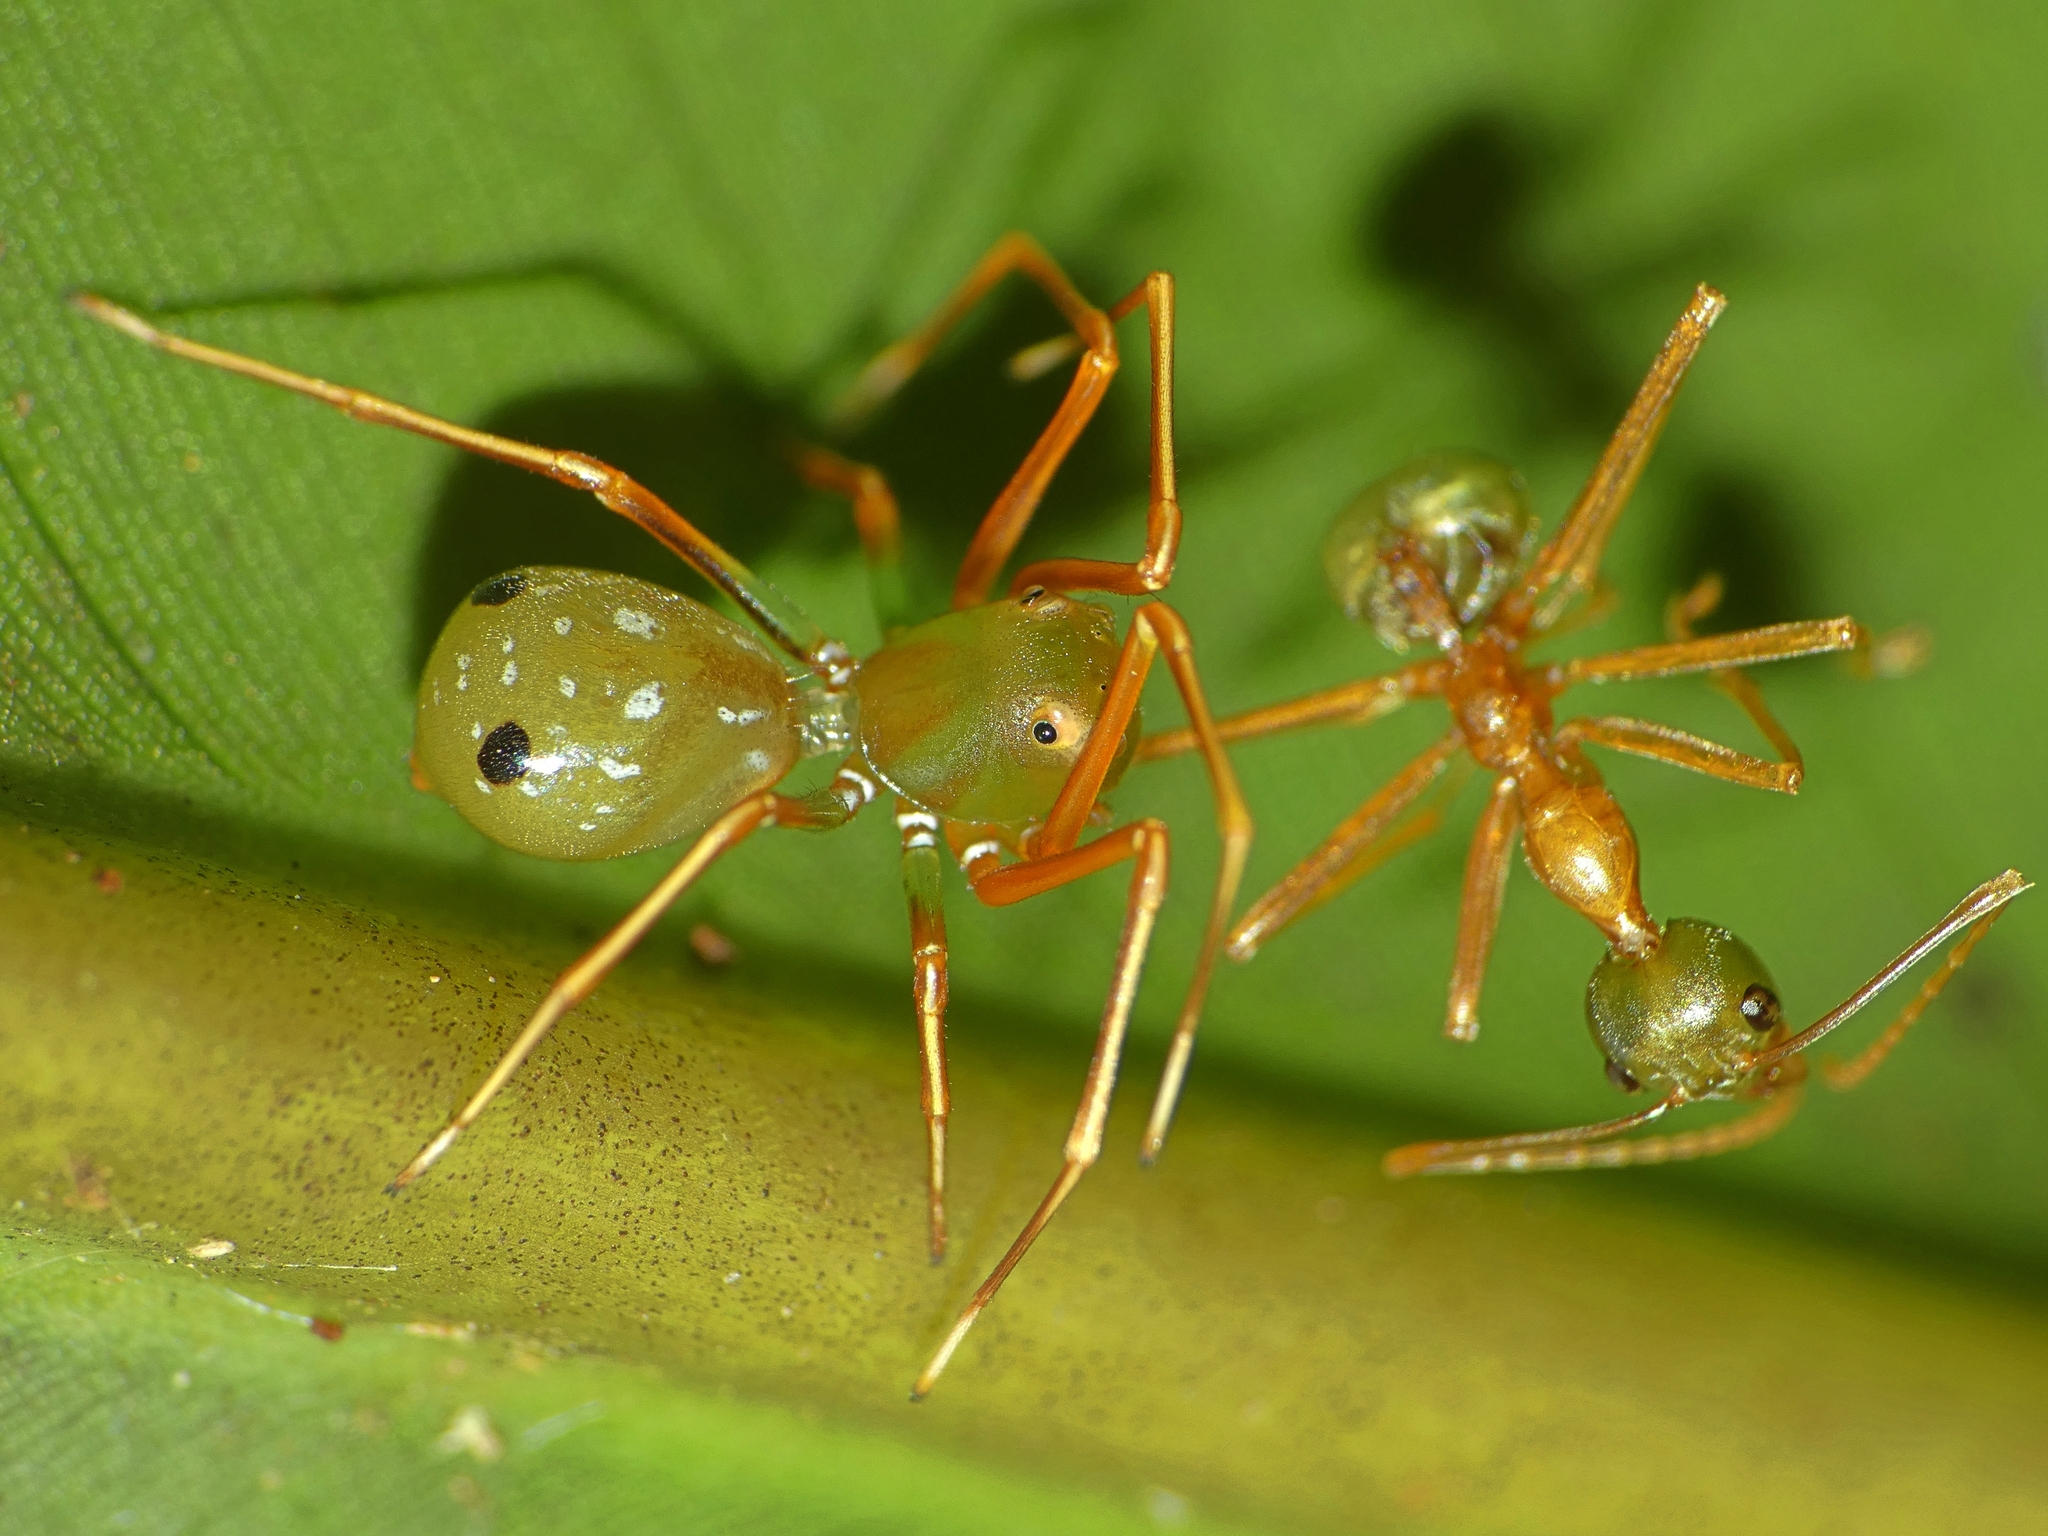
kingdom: Animalia
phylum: Arthropoda
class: Arachnida
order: Araneae
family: Thomisidae
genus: Amyciaea
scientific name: Amyciaea albomaculata
